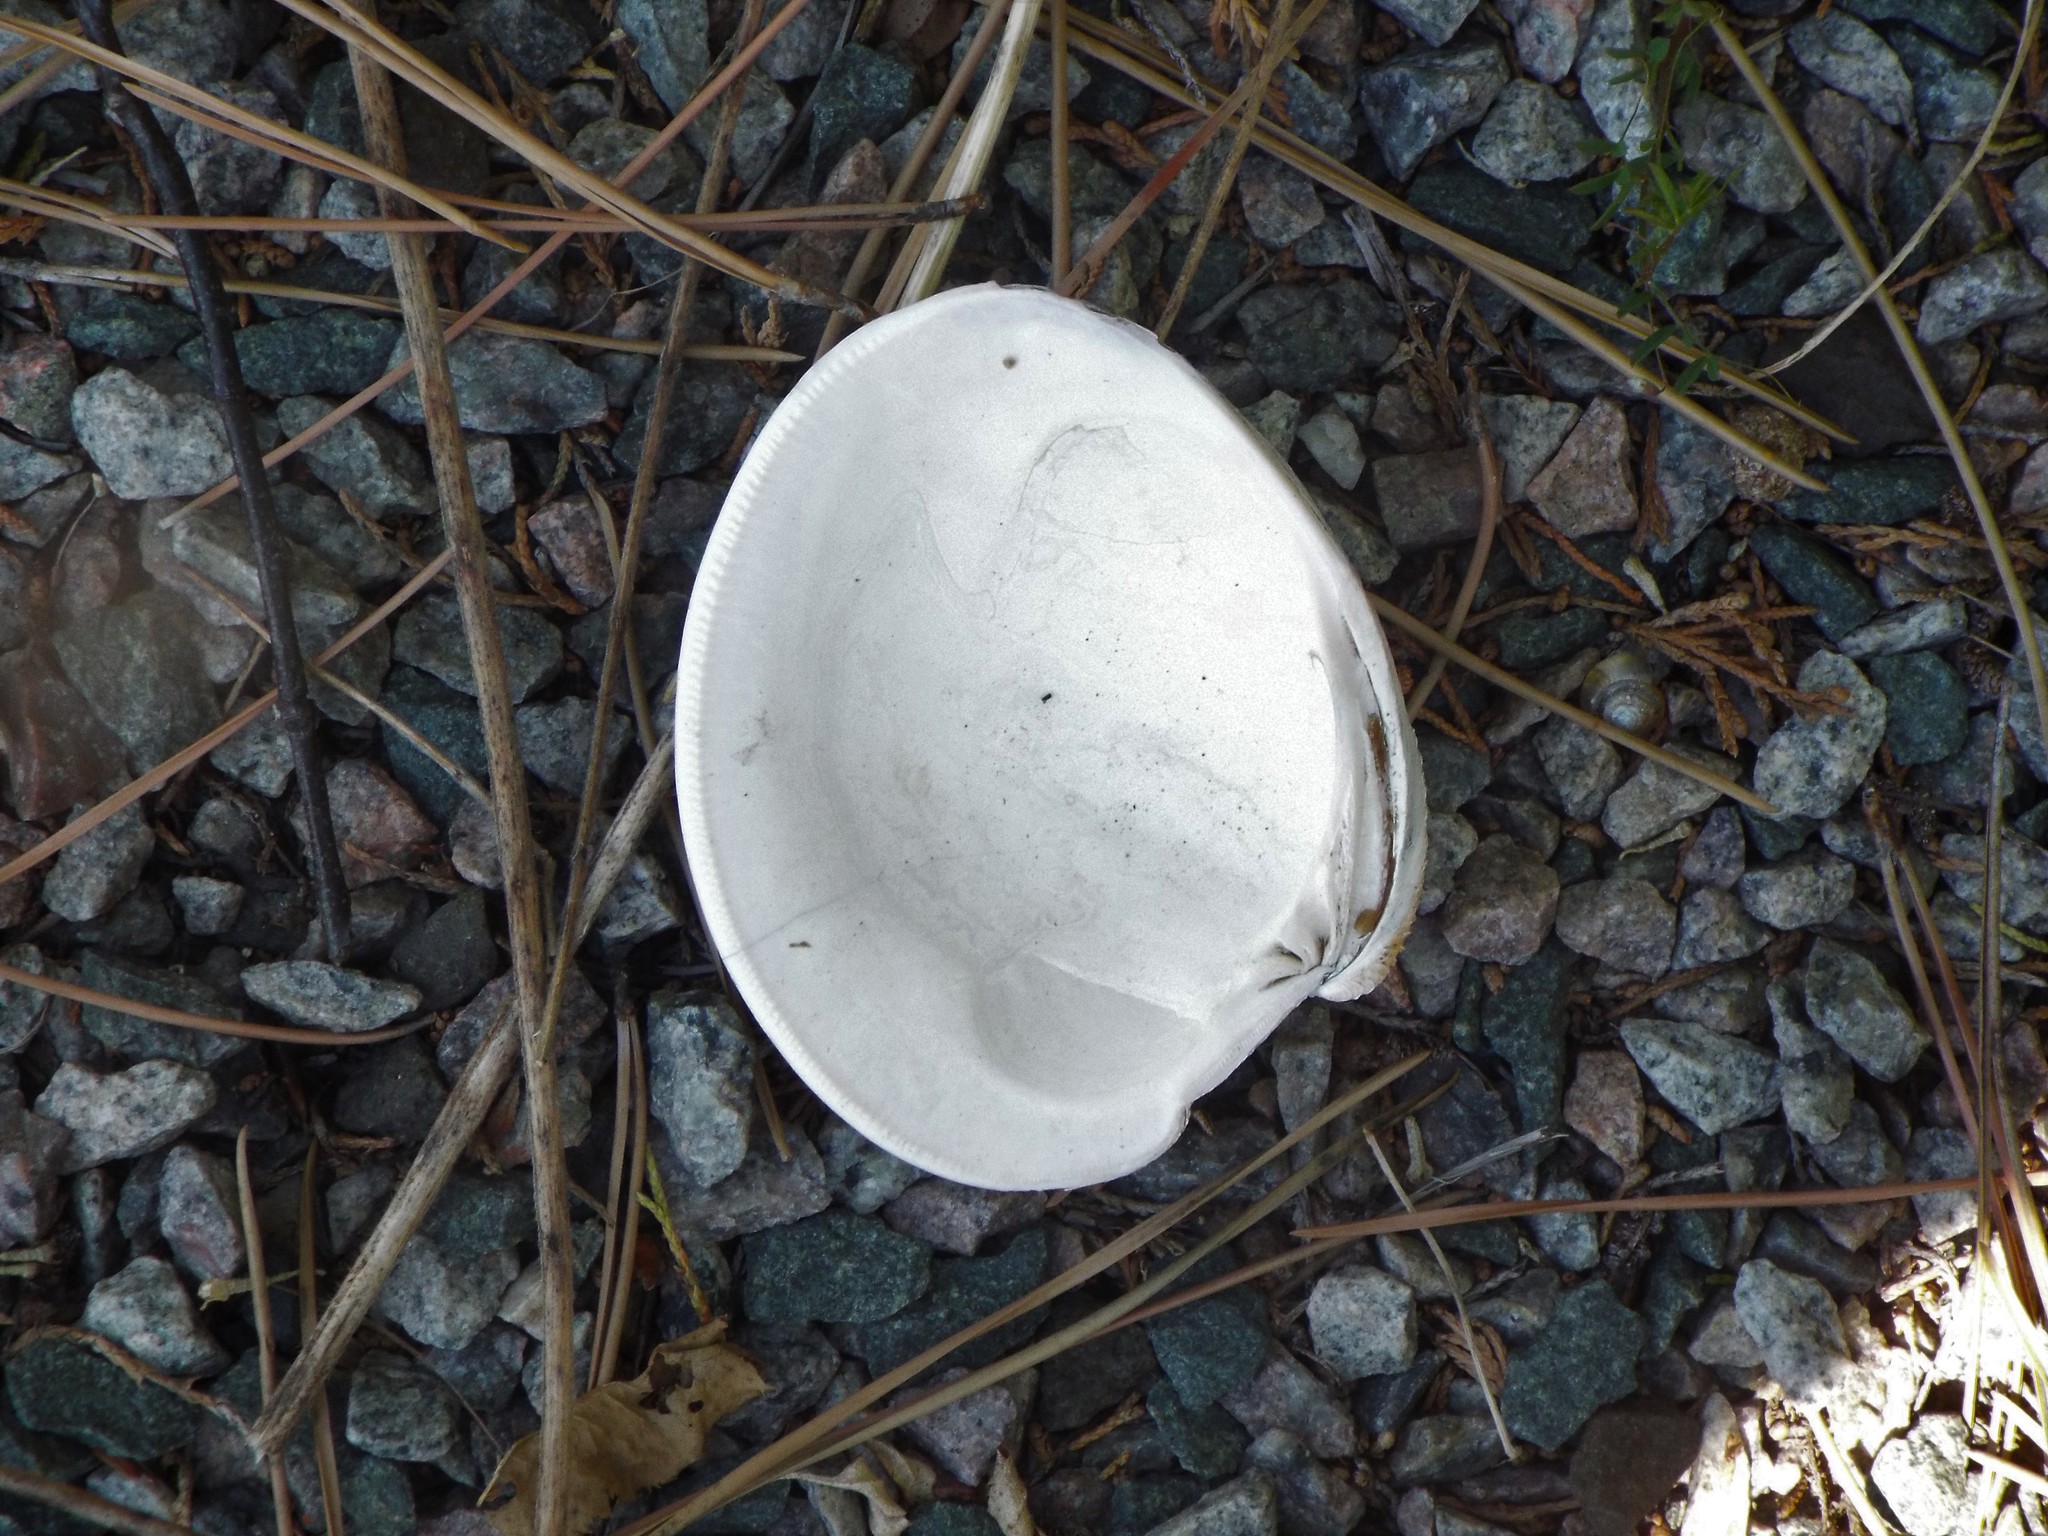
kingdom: Animalia
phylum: Mollusca
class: Bivalvia
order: Venerida
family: Veneridae
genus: Mercenaria
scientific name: Mercenaria mercenaria
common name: American hard-shelled clam
